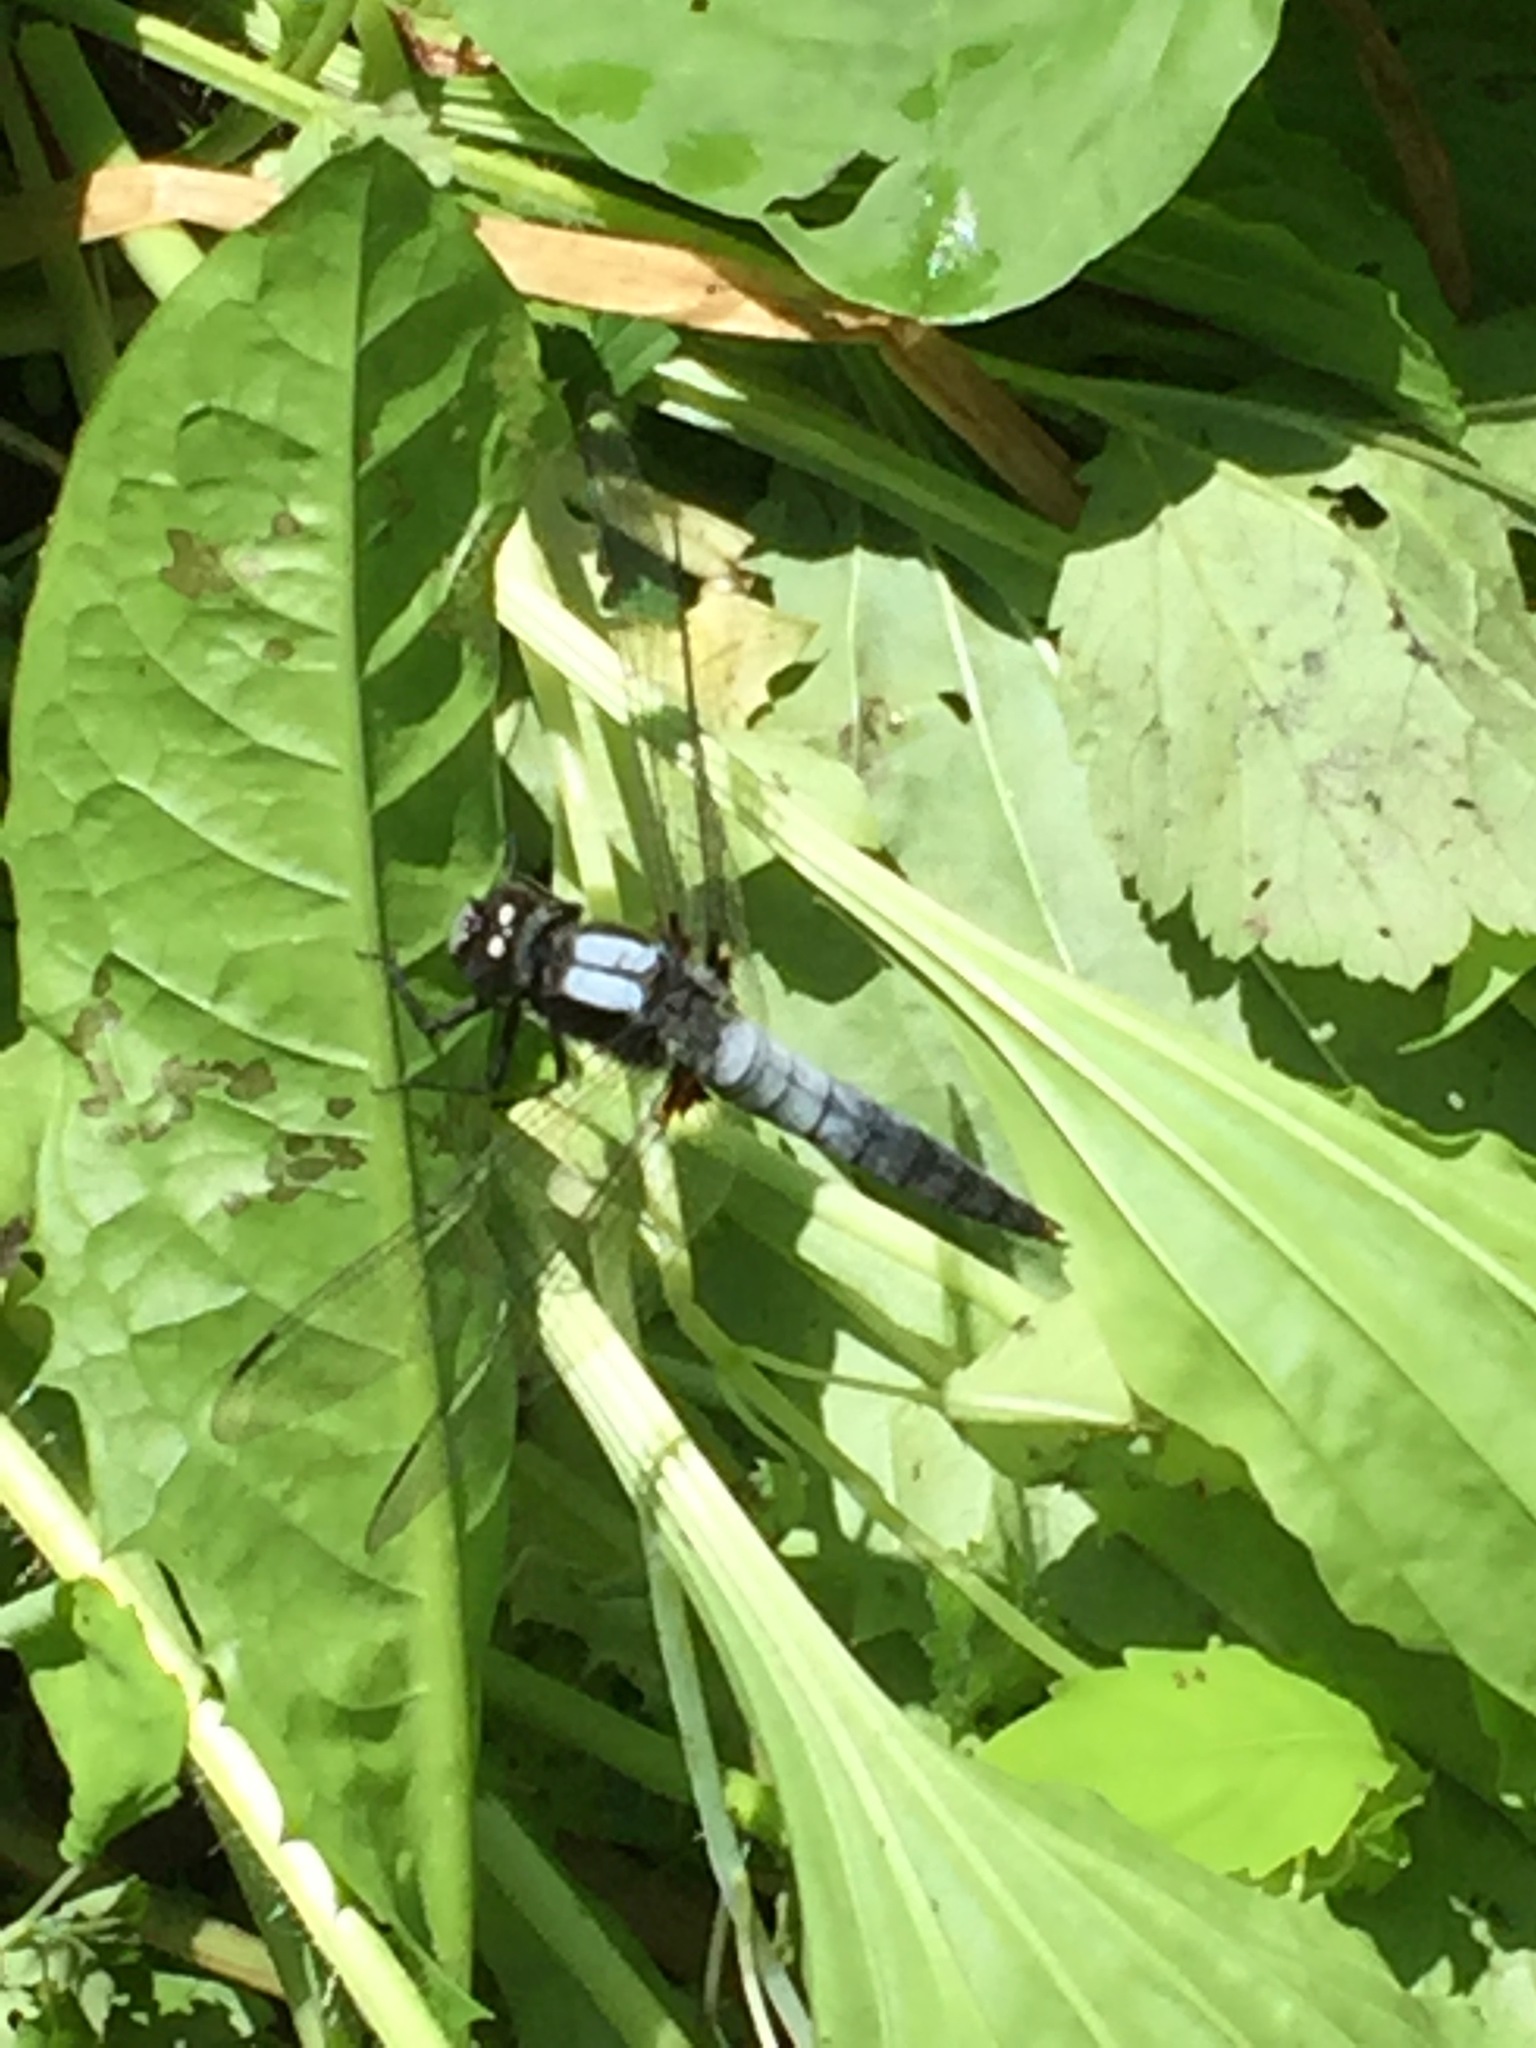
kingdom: Animalia
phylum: Arthropoda
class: Insecta
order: Odonata
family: Libellulidae
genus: Ladona
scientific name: Ladona julia
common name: Chalk-fronted corporal
